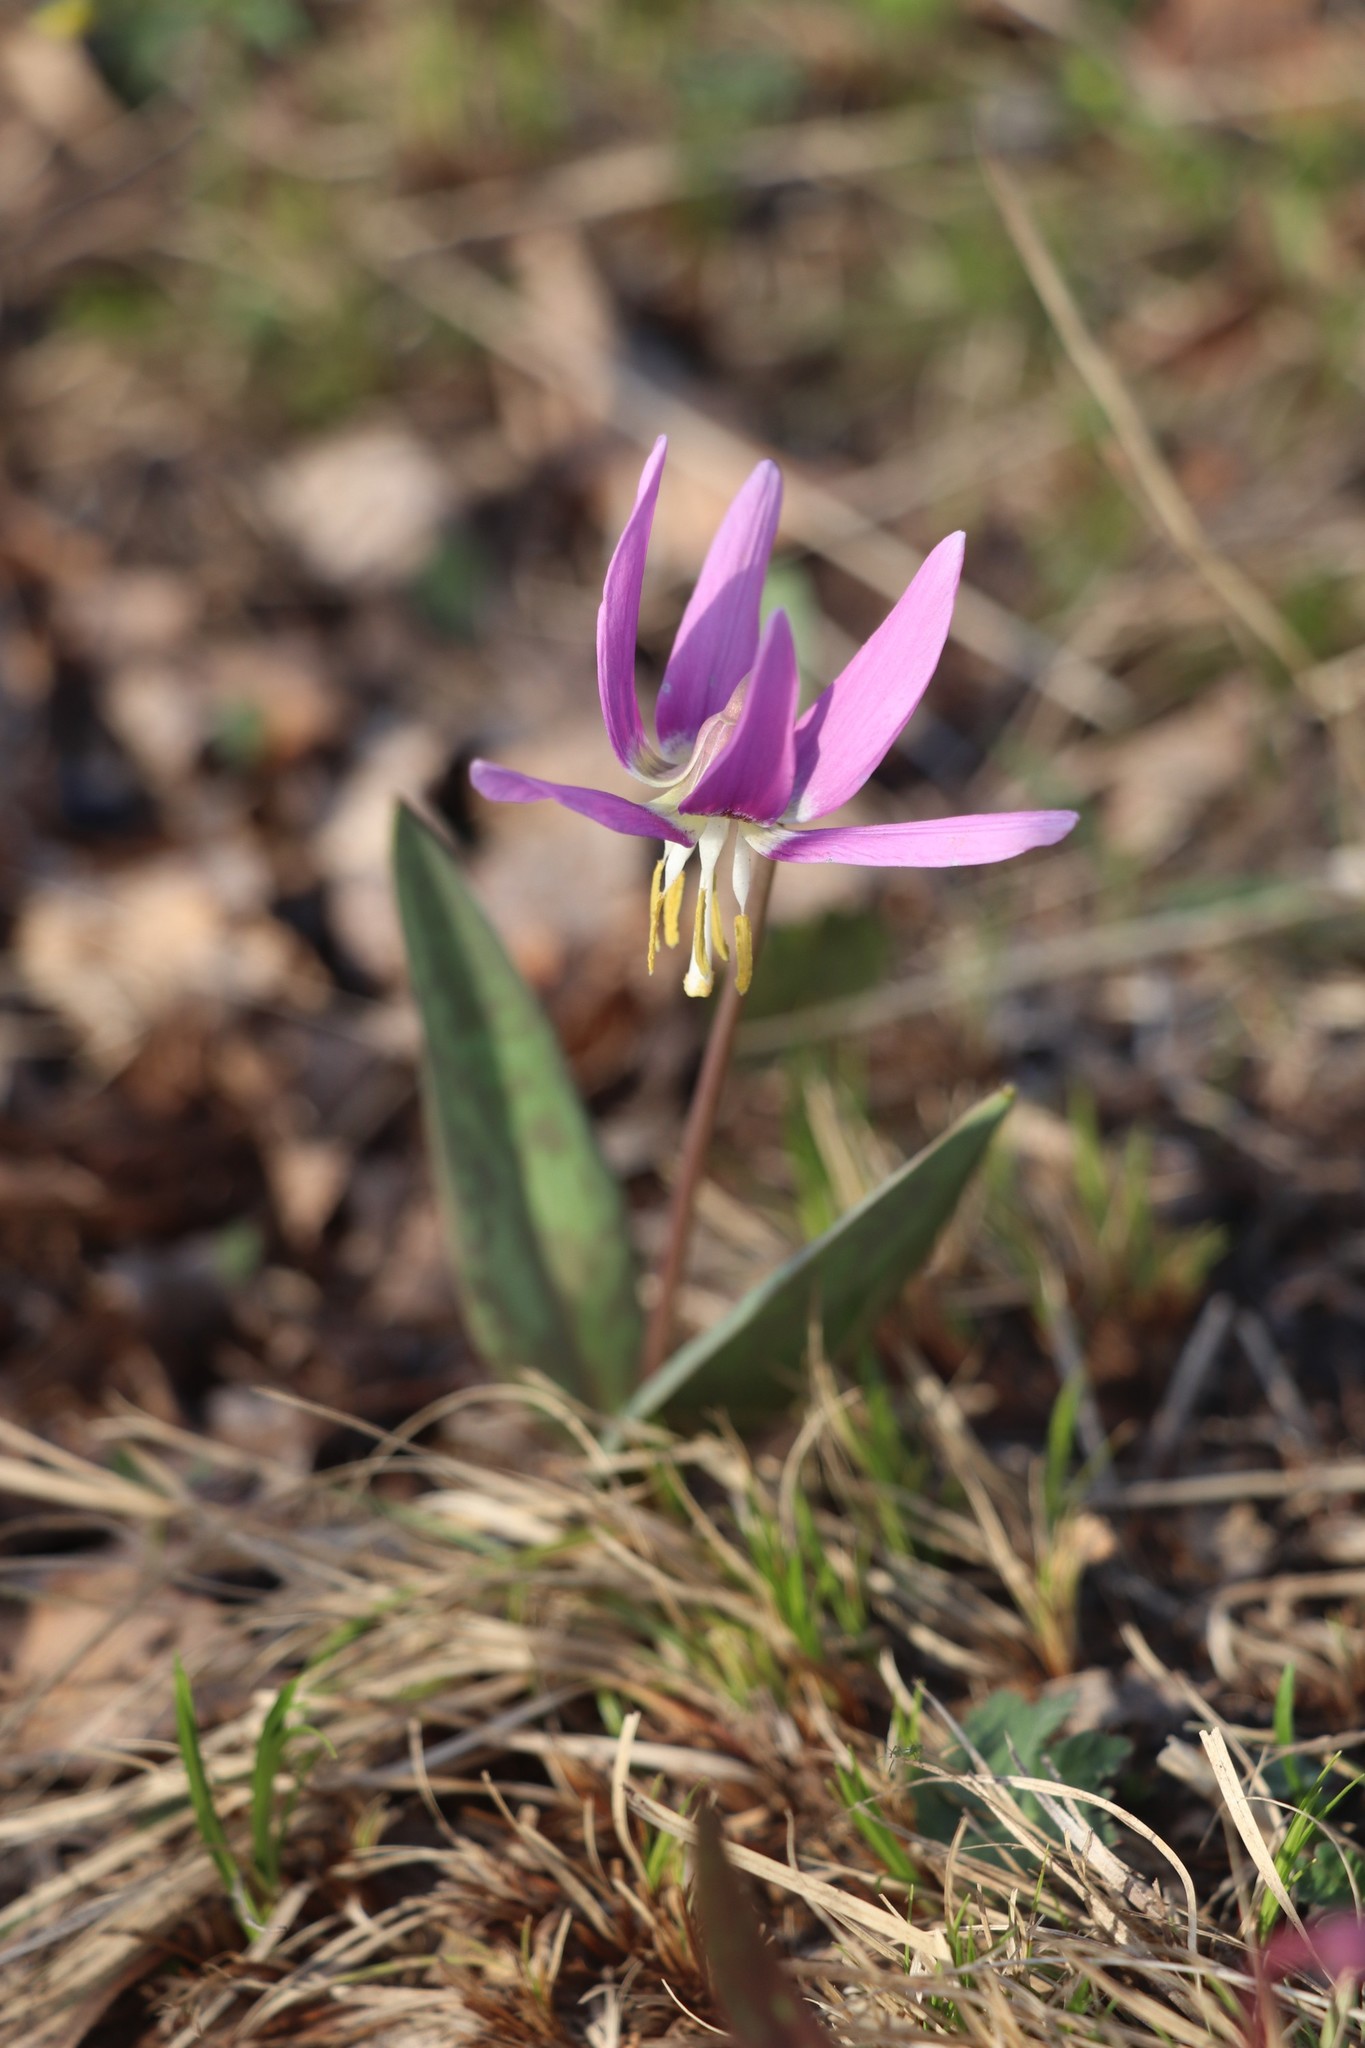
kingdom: Plantae
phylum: Tracheophyta
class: Liliopsida
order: Liliales
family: Liliaceae
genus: Erythronium
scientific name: Erythronium sibiricum
